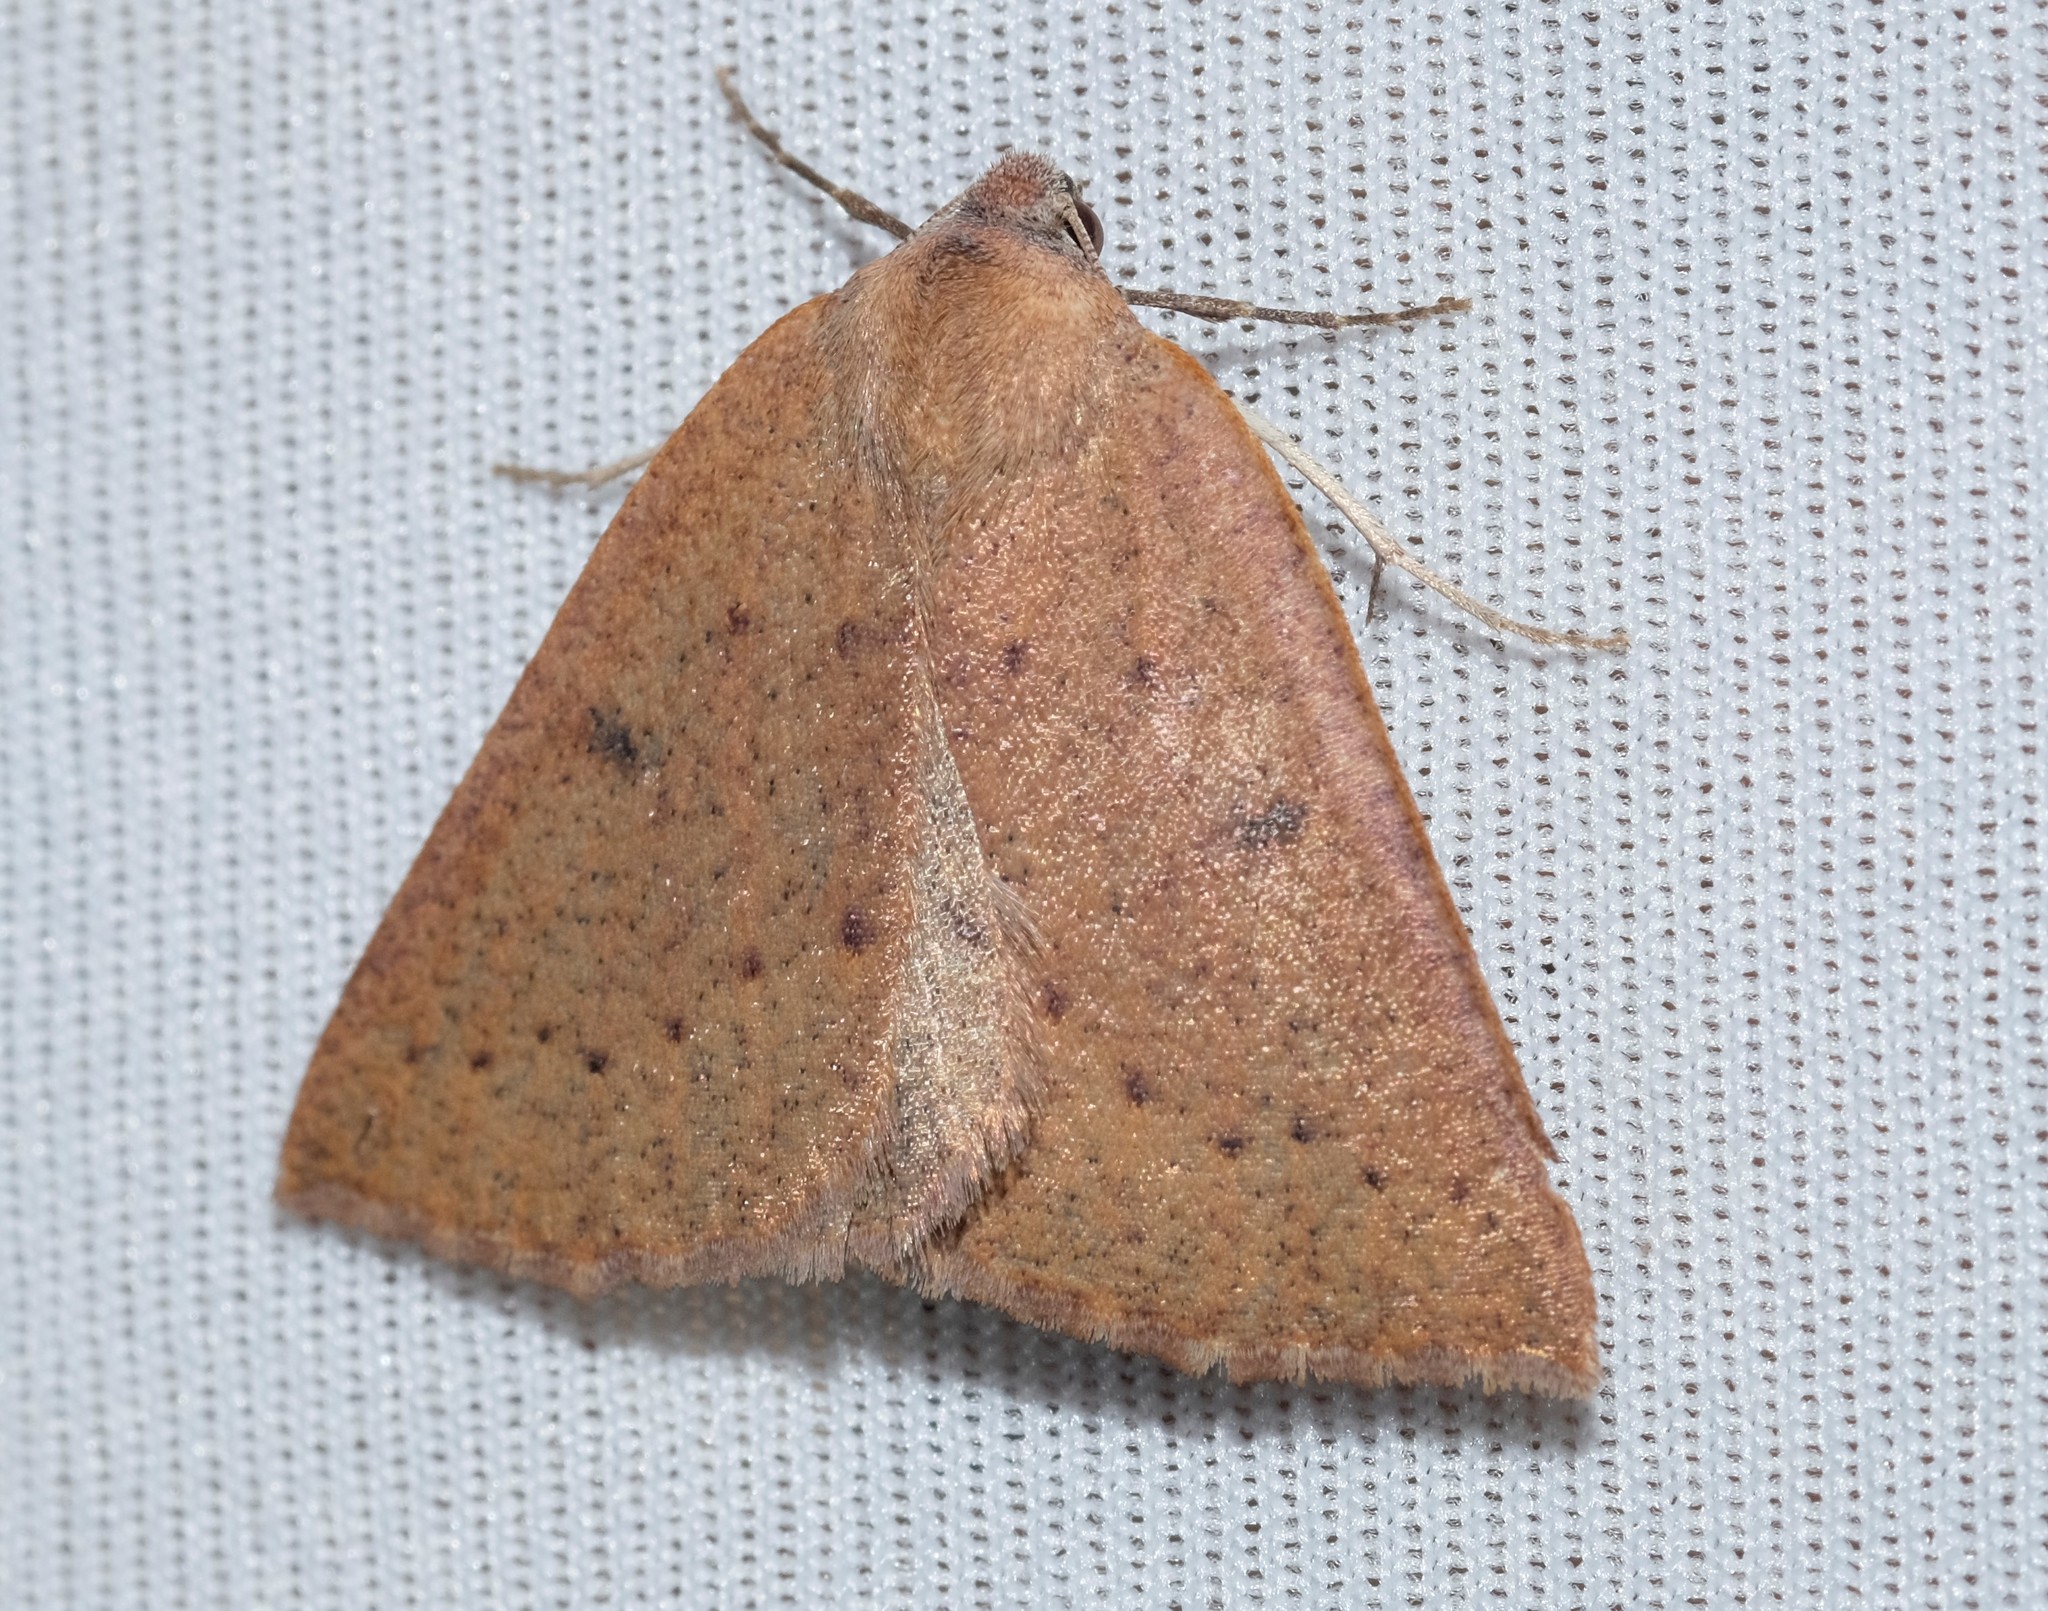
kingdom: Animalia
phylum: Arthropoda
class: Insecta
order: Lepidoptera
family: Geometridae
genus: Androchela
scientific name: Androchela milvaria
